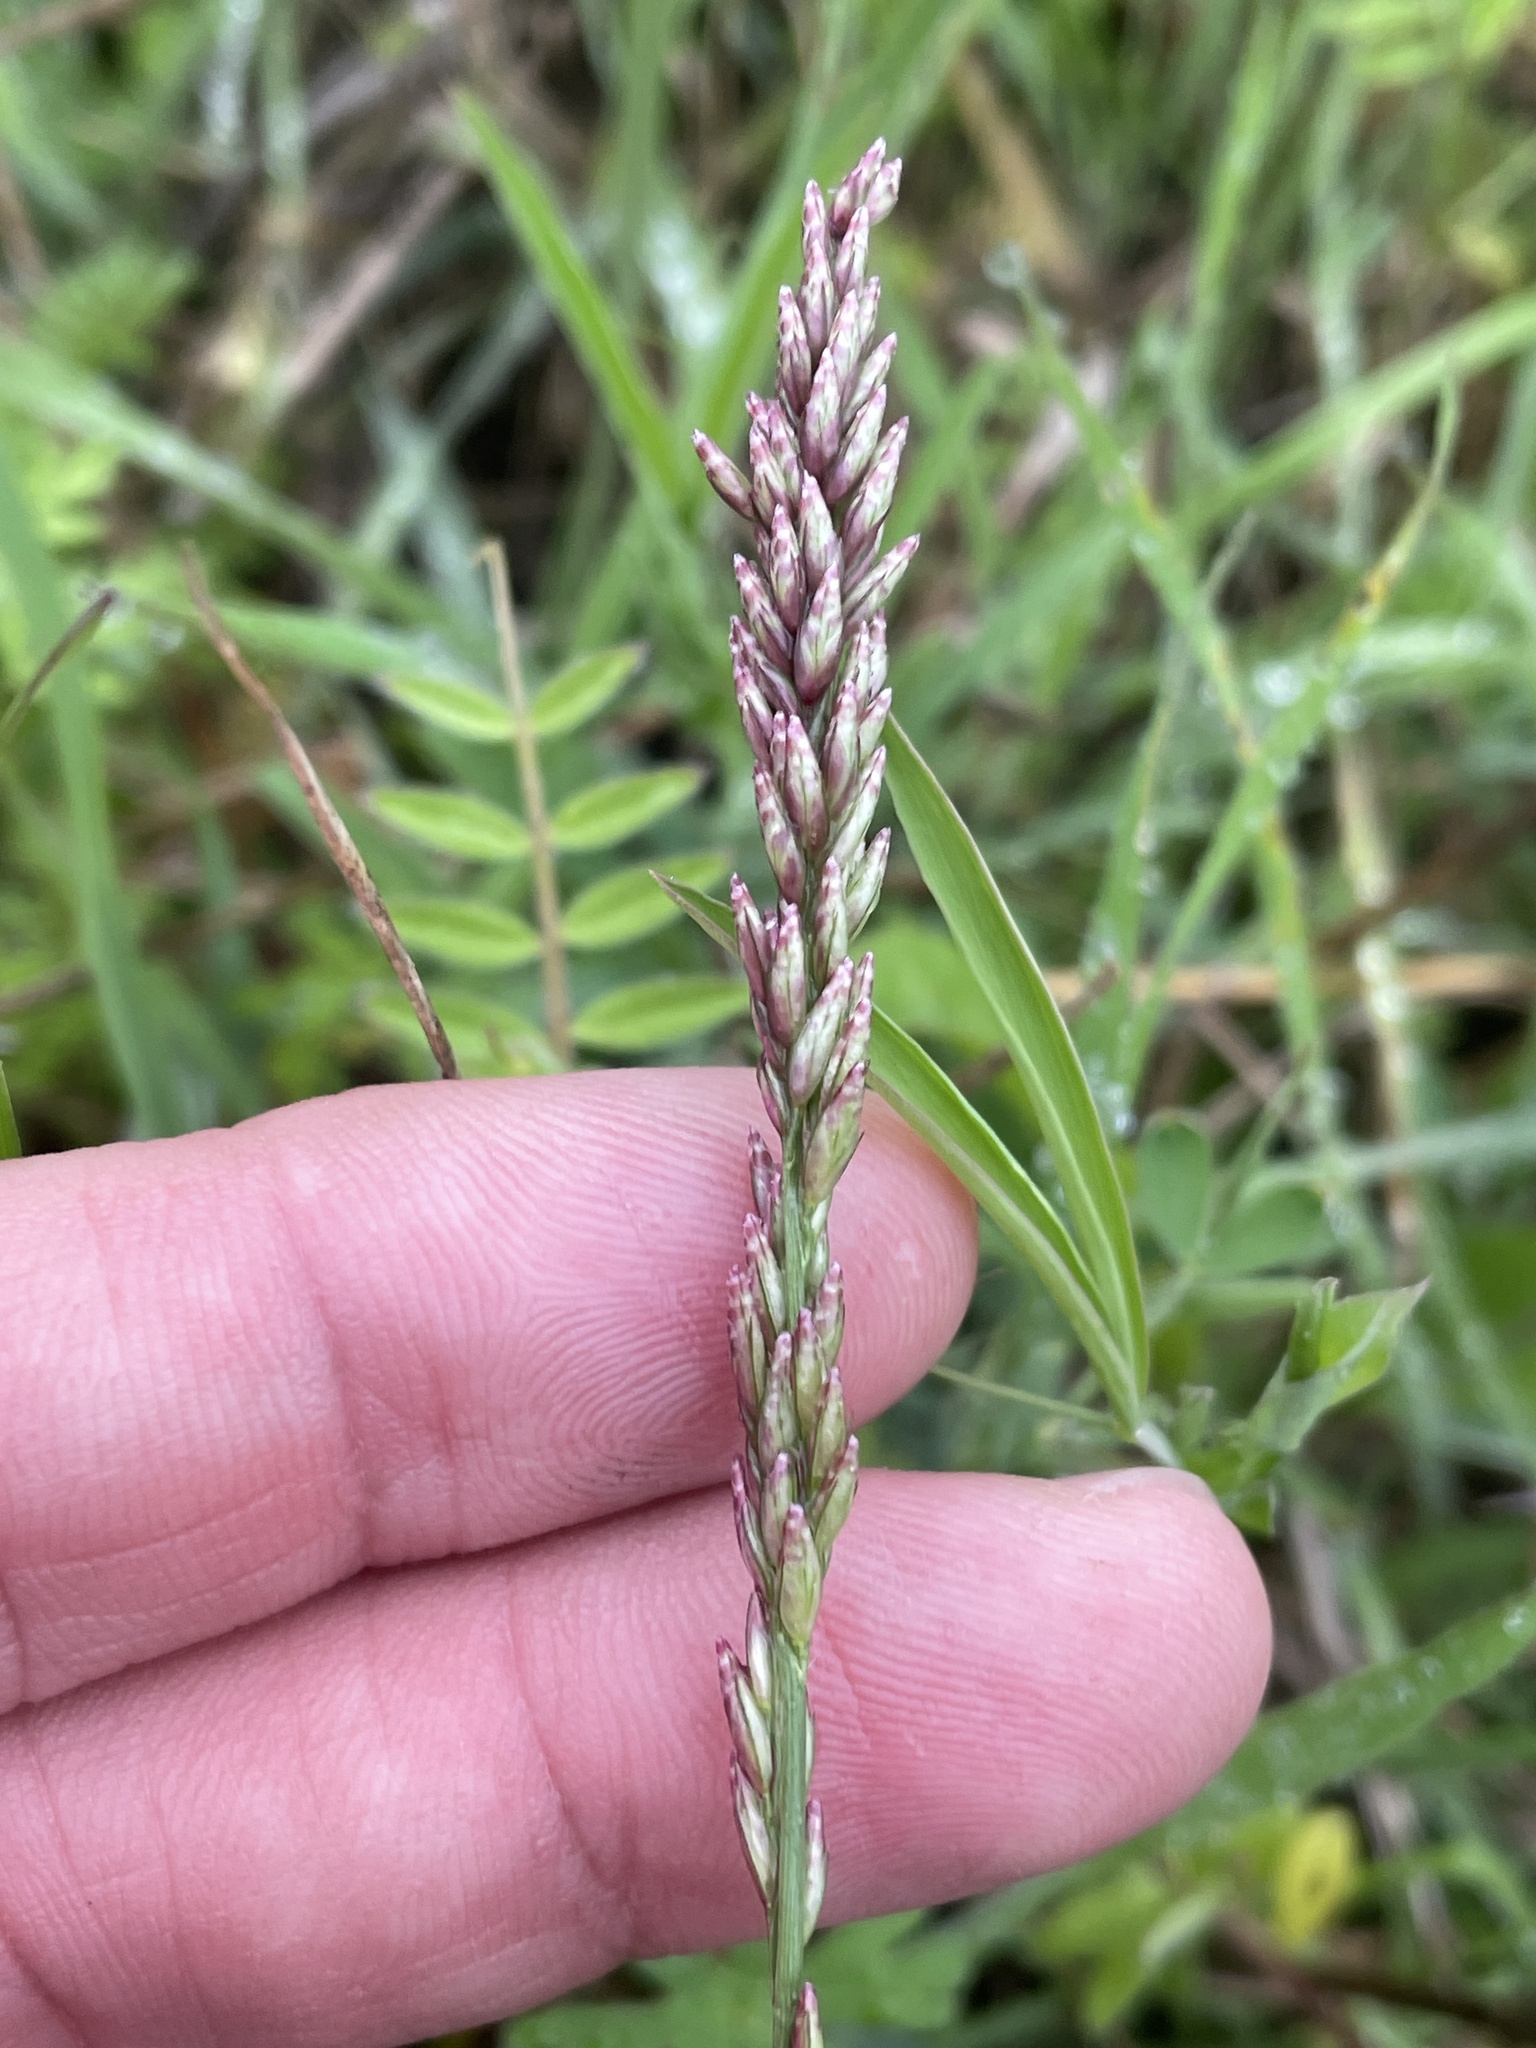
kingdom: Plantae
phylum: Tracheophyta
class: Liliopsida
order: Poales
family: Poaceae
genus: Tridens
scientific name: Tridens albescens
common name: White tridens
